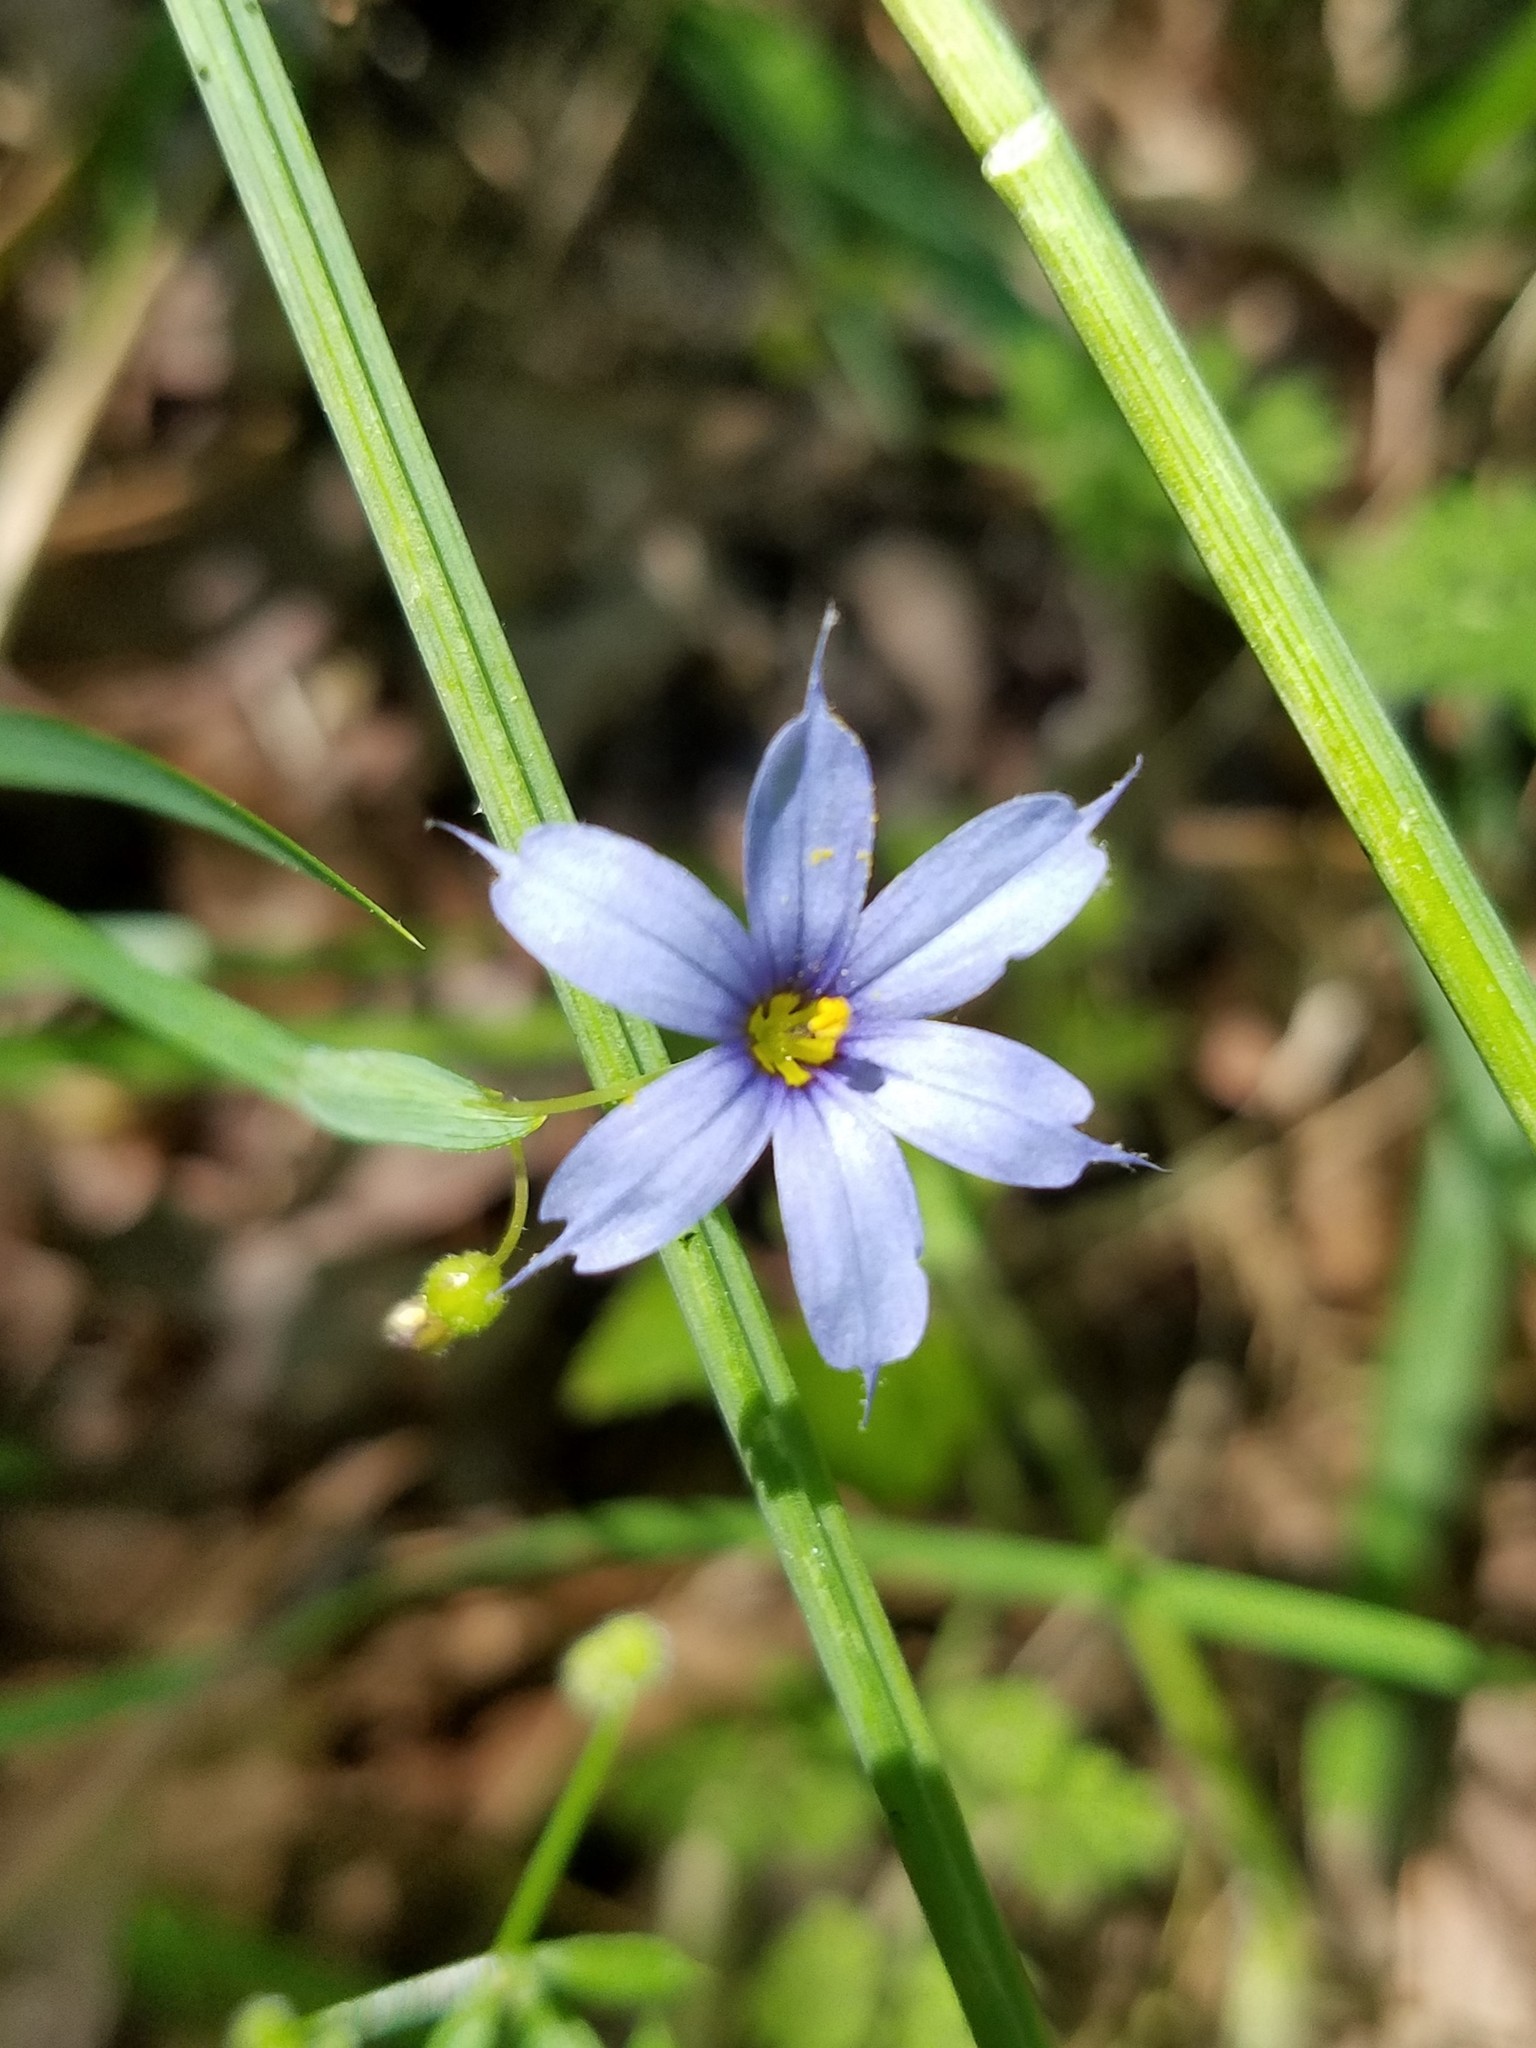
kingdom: Plantae
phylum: Tracheophyta
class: Liliopsida
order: Asparagales
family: Iridaceae
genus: Sisyrinchium
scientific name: Sisyrinchium angustifolium
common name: Narrow-leaf blue-eyed-grass
